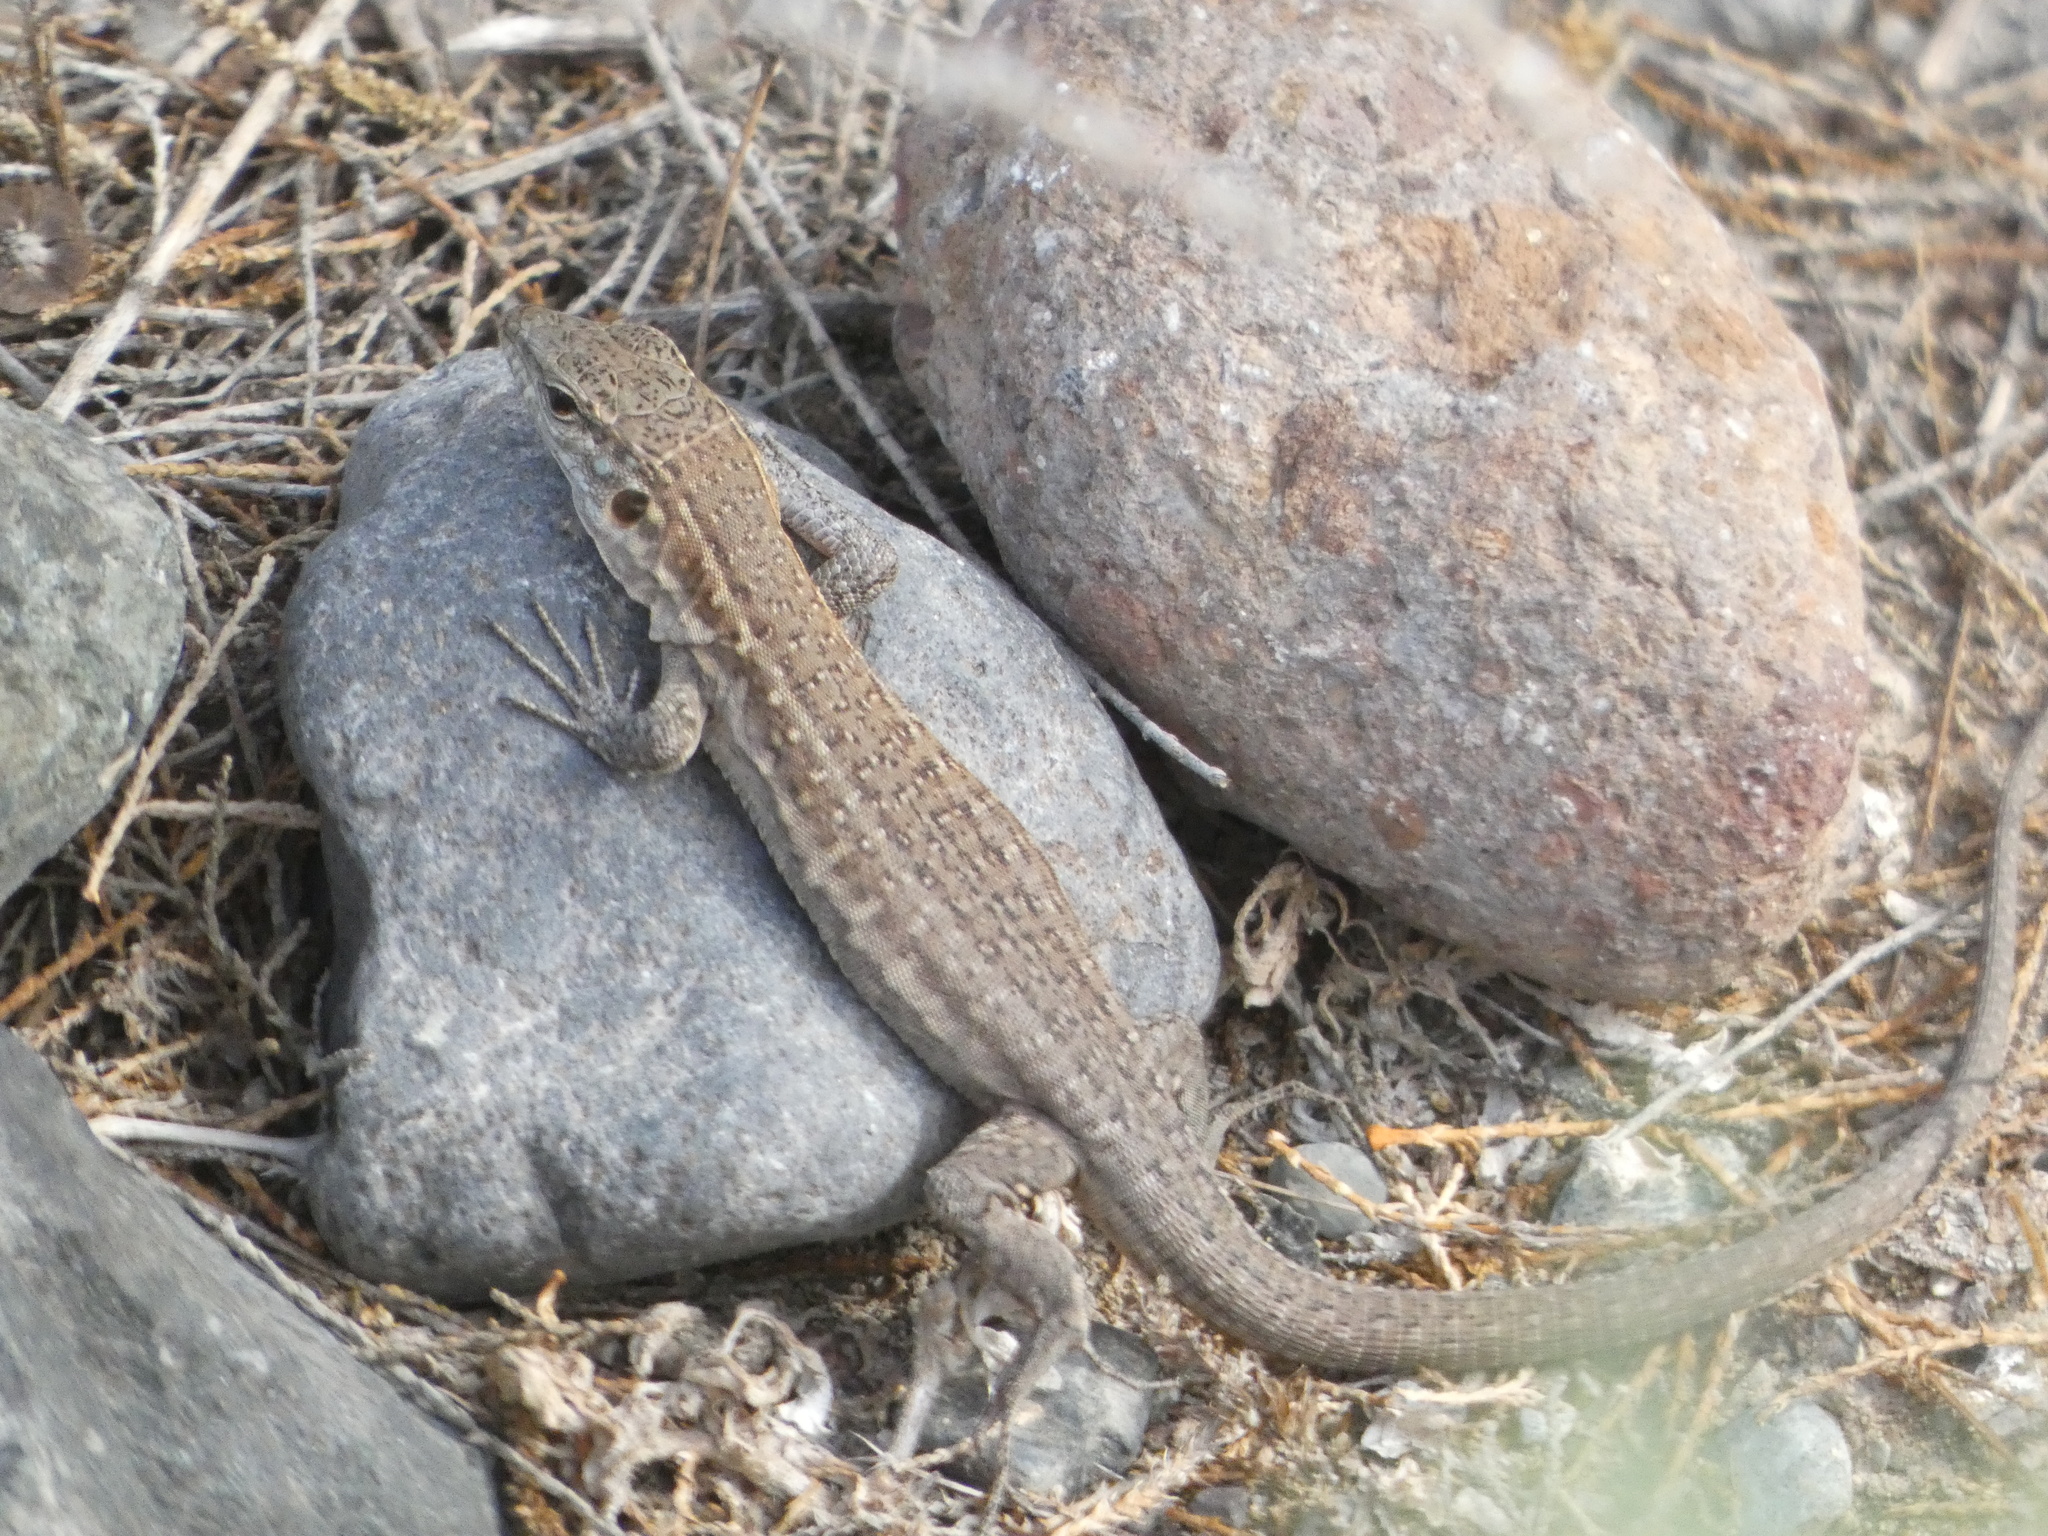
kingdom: Animalia
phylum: Chordata
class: Squamata
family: Lacertidae
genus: Gallotia
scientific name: Gallotia stehlini
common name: Gran canaria giant lizard
